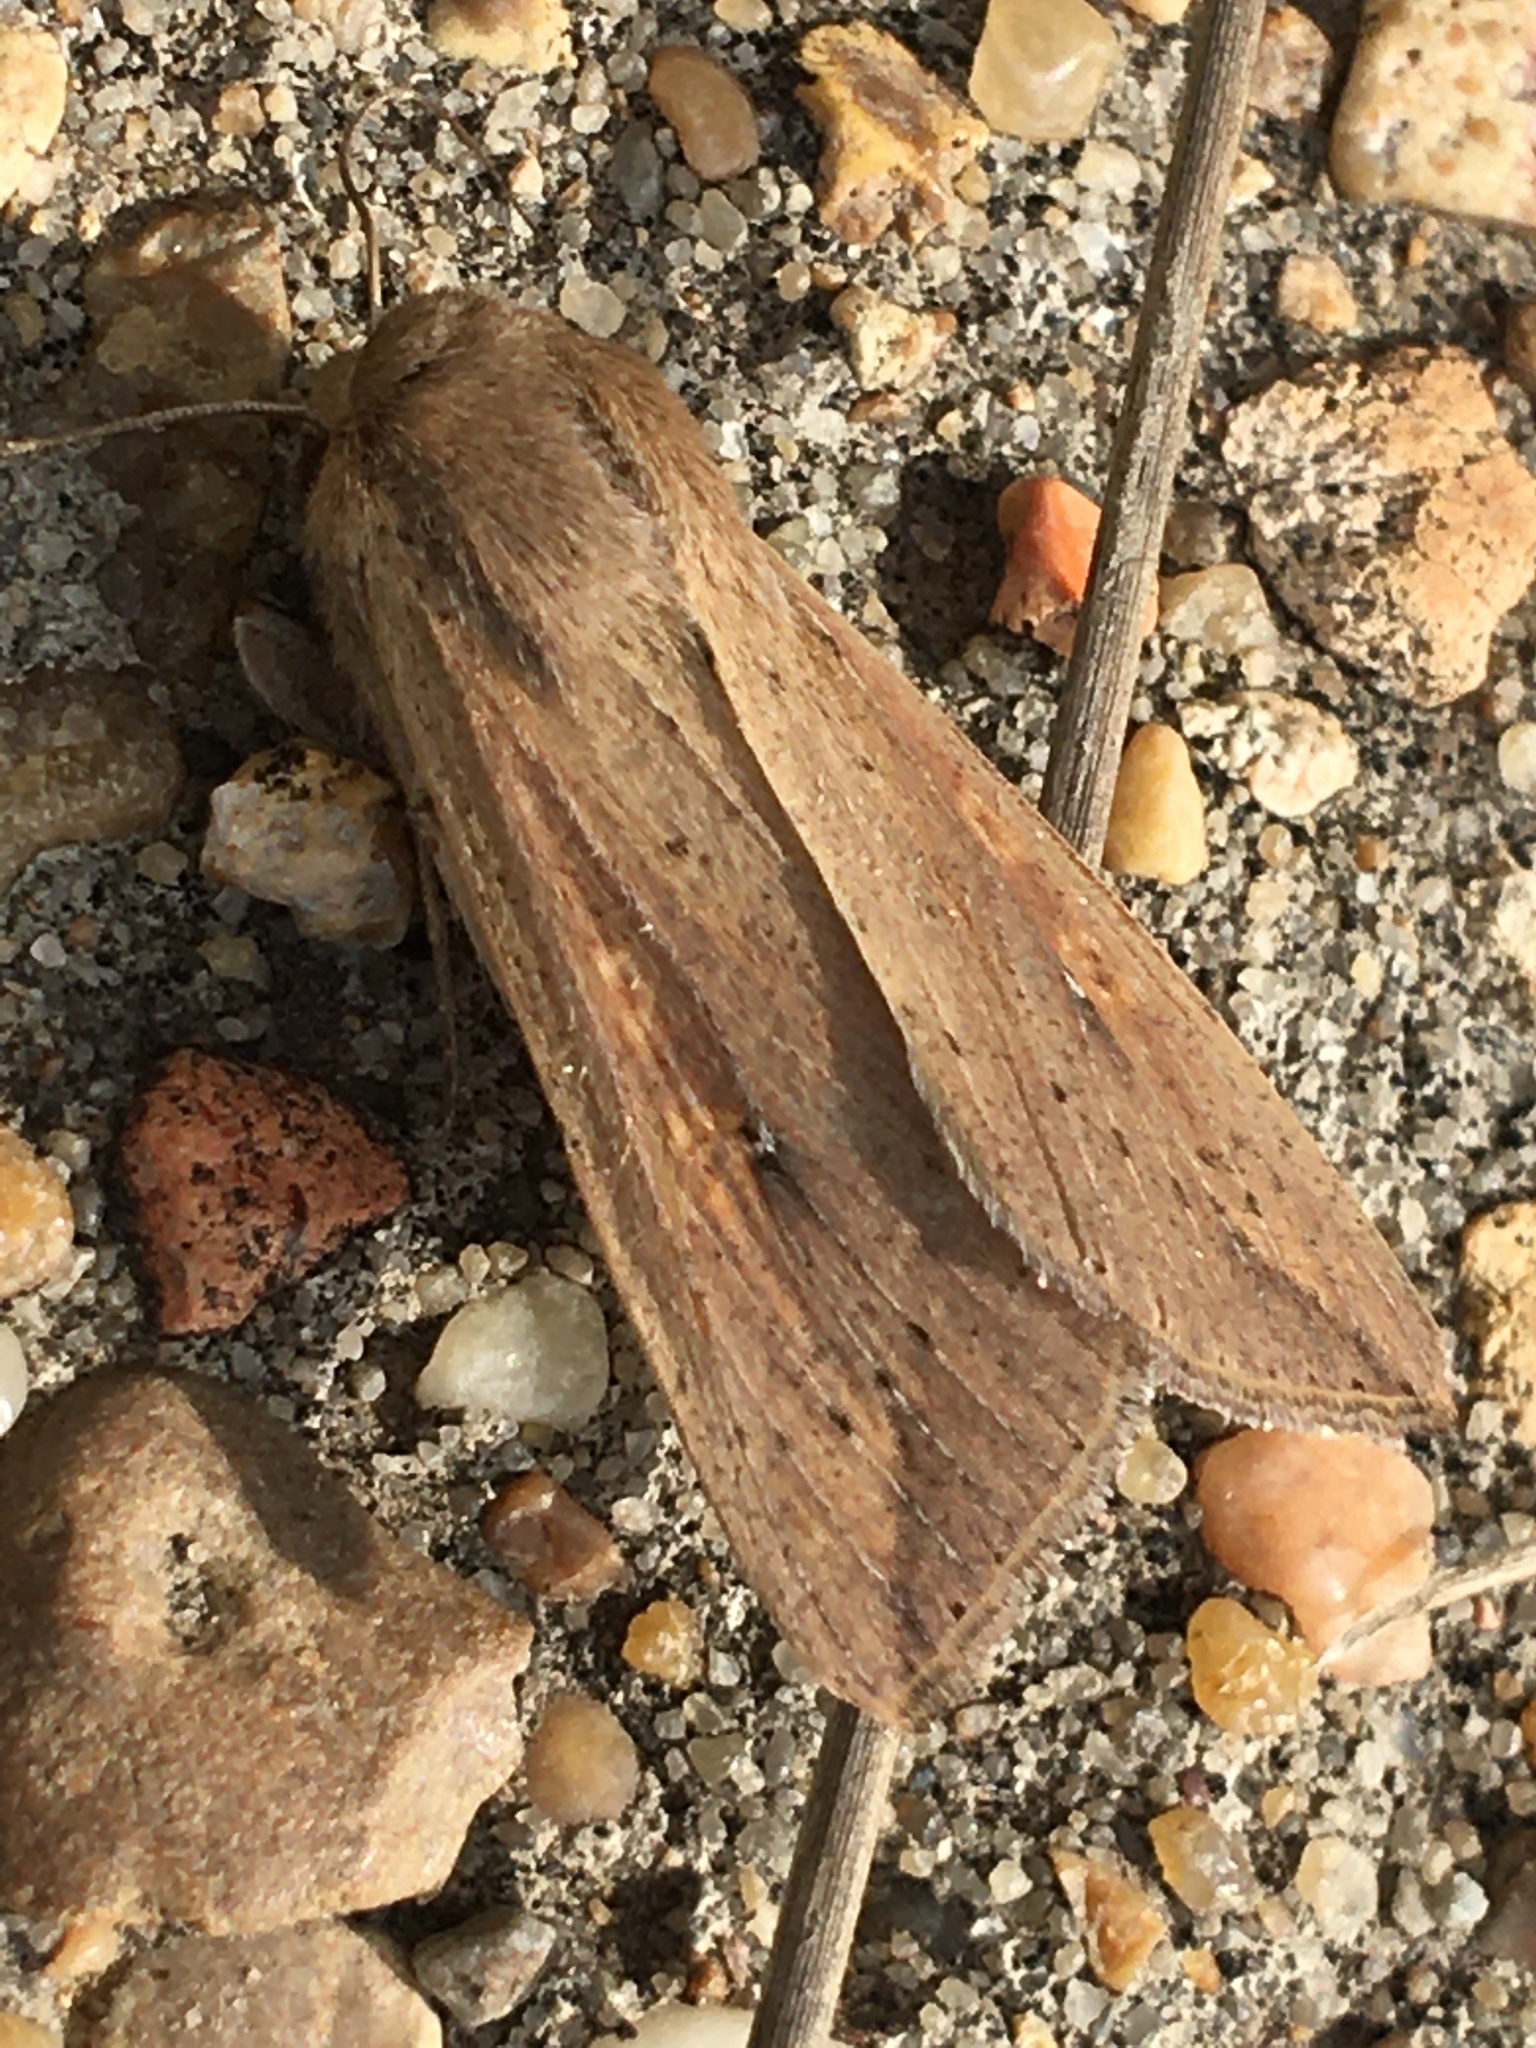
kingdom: Animalia
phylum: Arthropoda
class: Insecta
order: Lepidoptera
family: Noctuidae
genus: Mythimna
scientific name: Mythimna unipuncta
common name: White-speck
